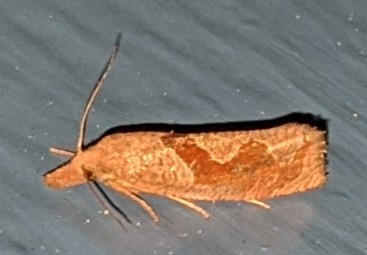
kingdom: Animalia
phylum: Arthropoda
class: Insecta
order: Lepidoptera
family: Tortricidae
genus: Pelochrista
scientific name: Pelochrista similiana
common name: Similar eucosma
